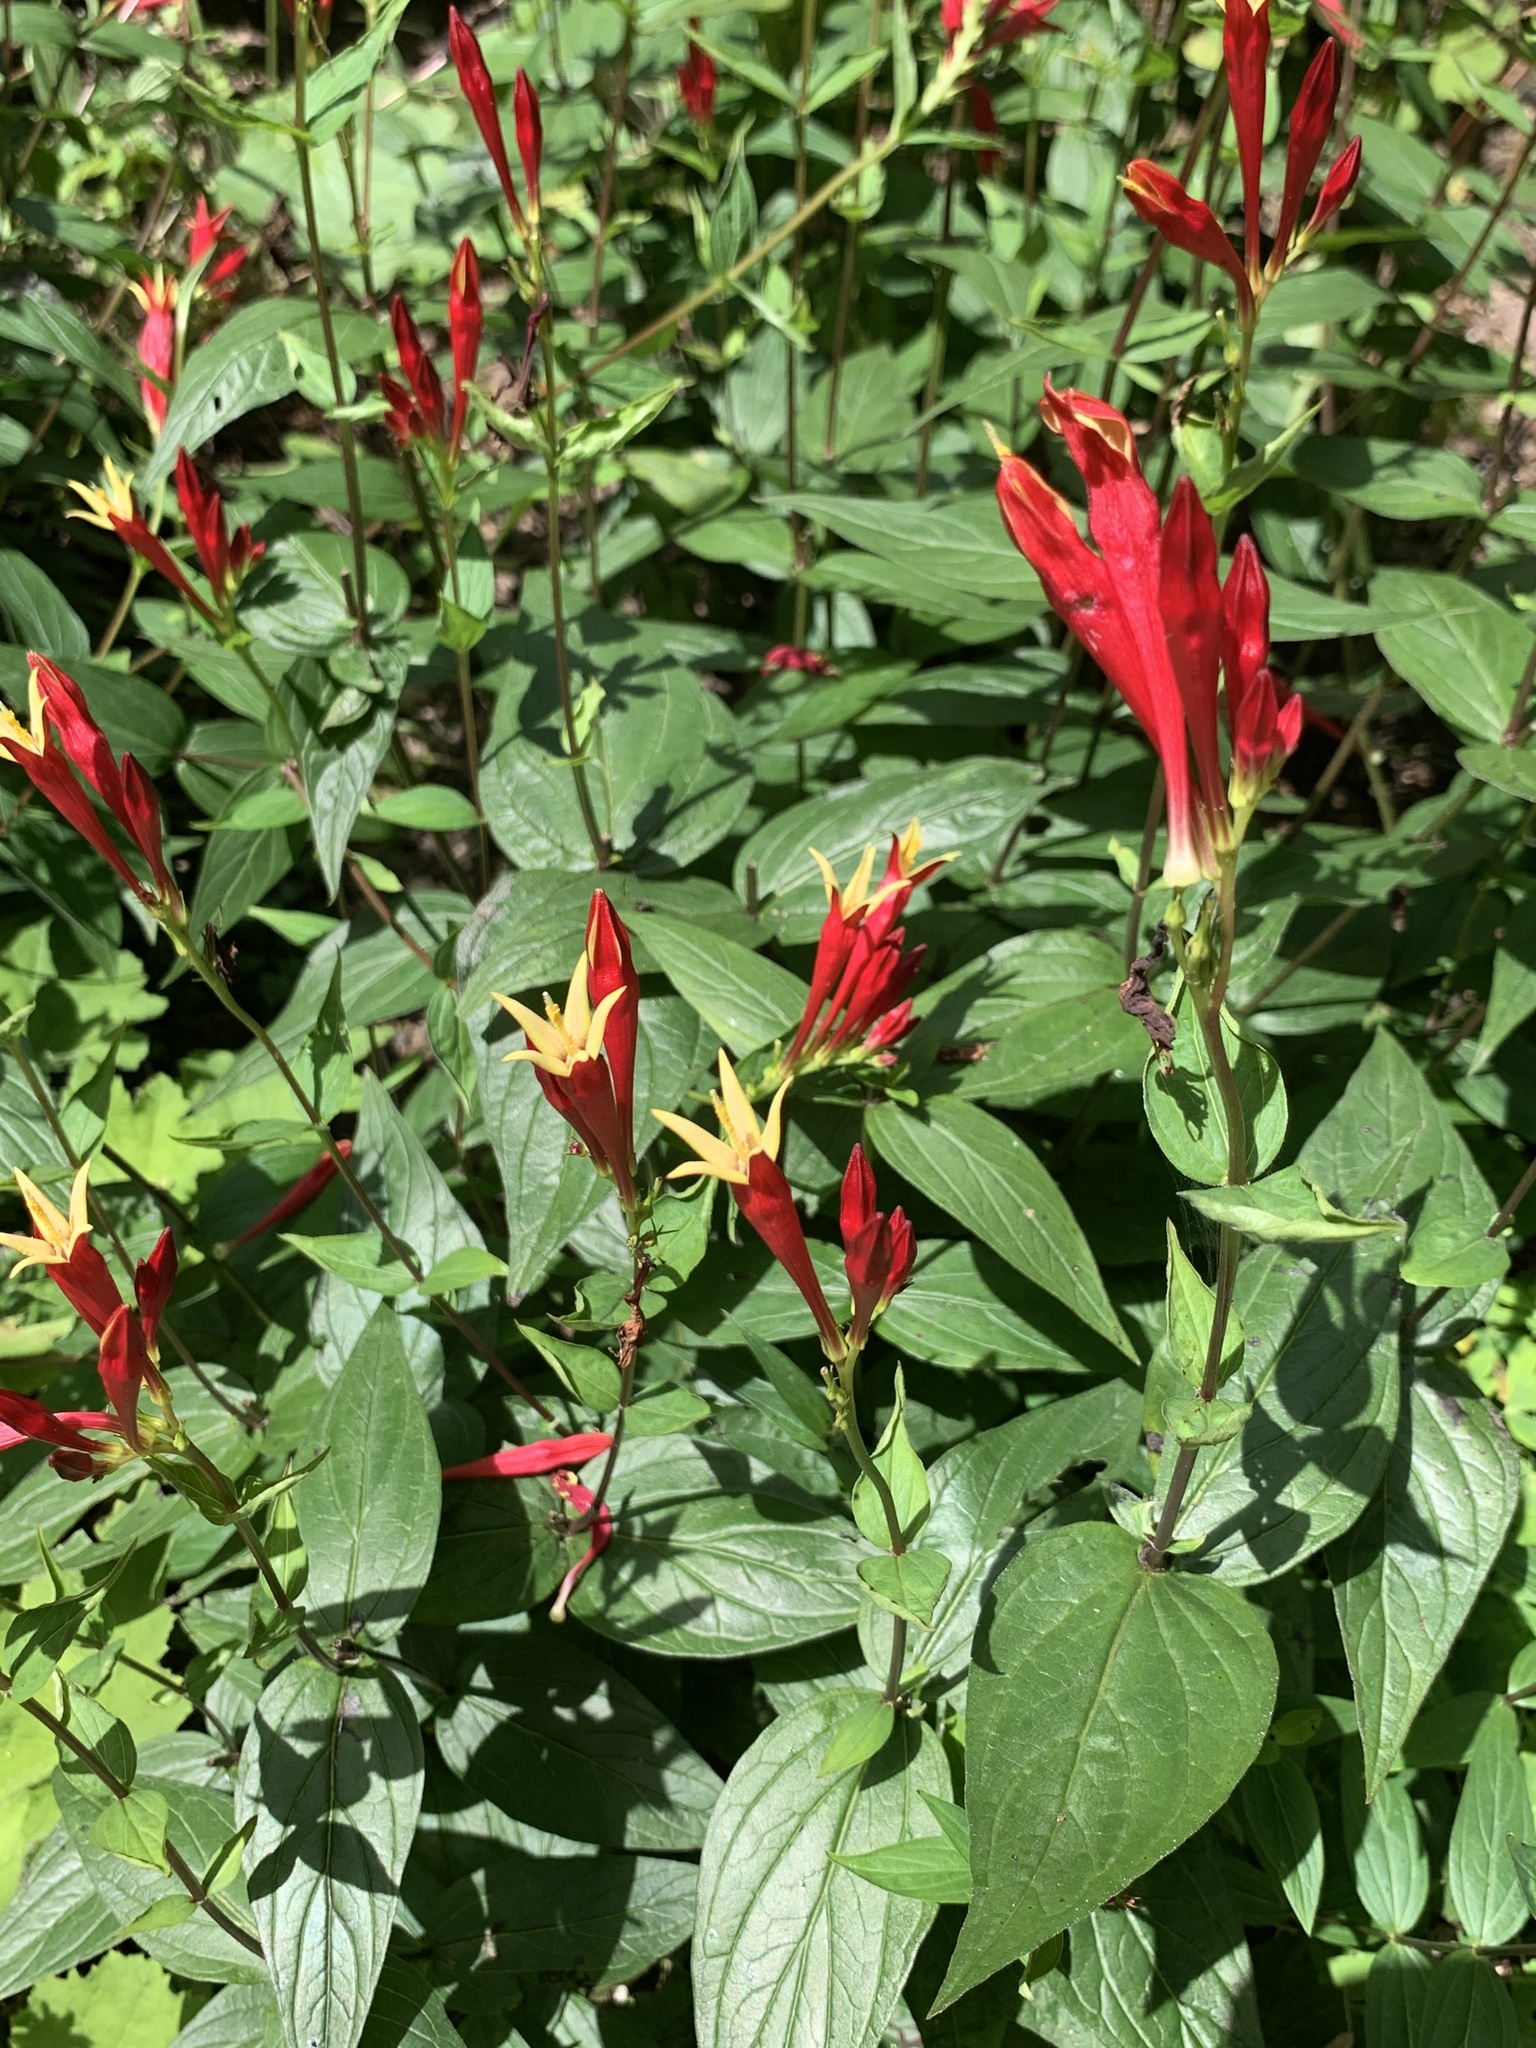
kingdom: Plantae
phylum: Tracheophyta
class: Magnoliopsida
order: Gentianales
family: Loganiaceae
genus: Spigelia
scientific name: Spigelia marilandica
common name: Indian-pink
